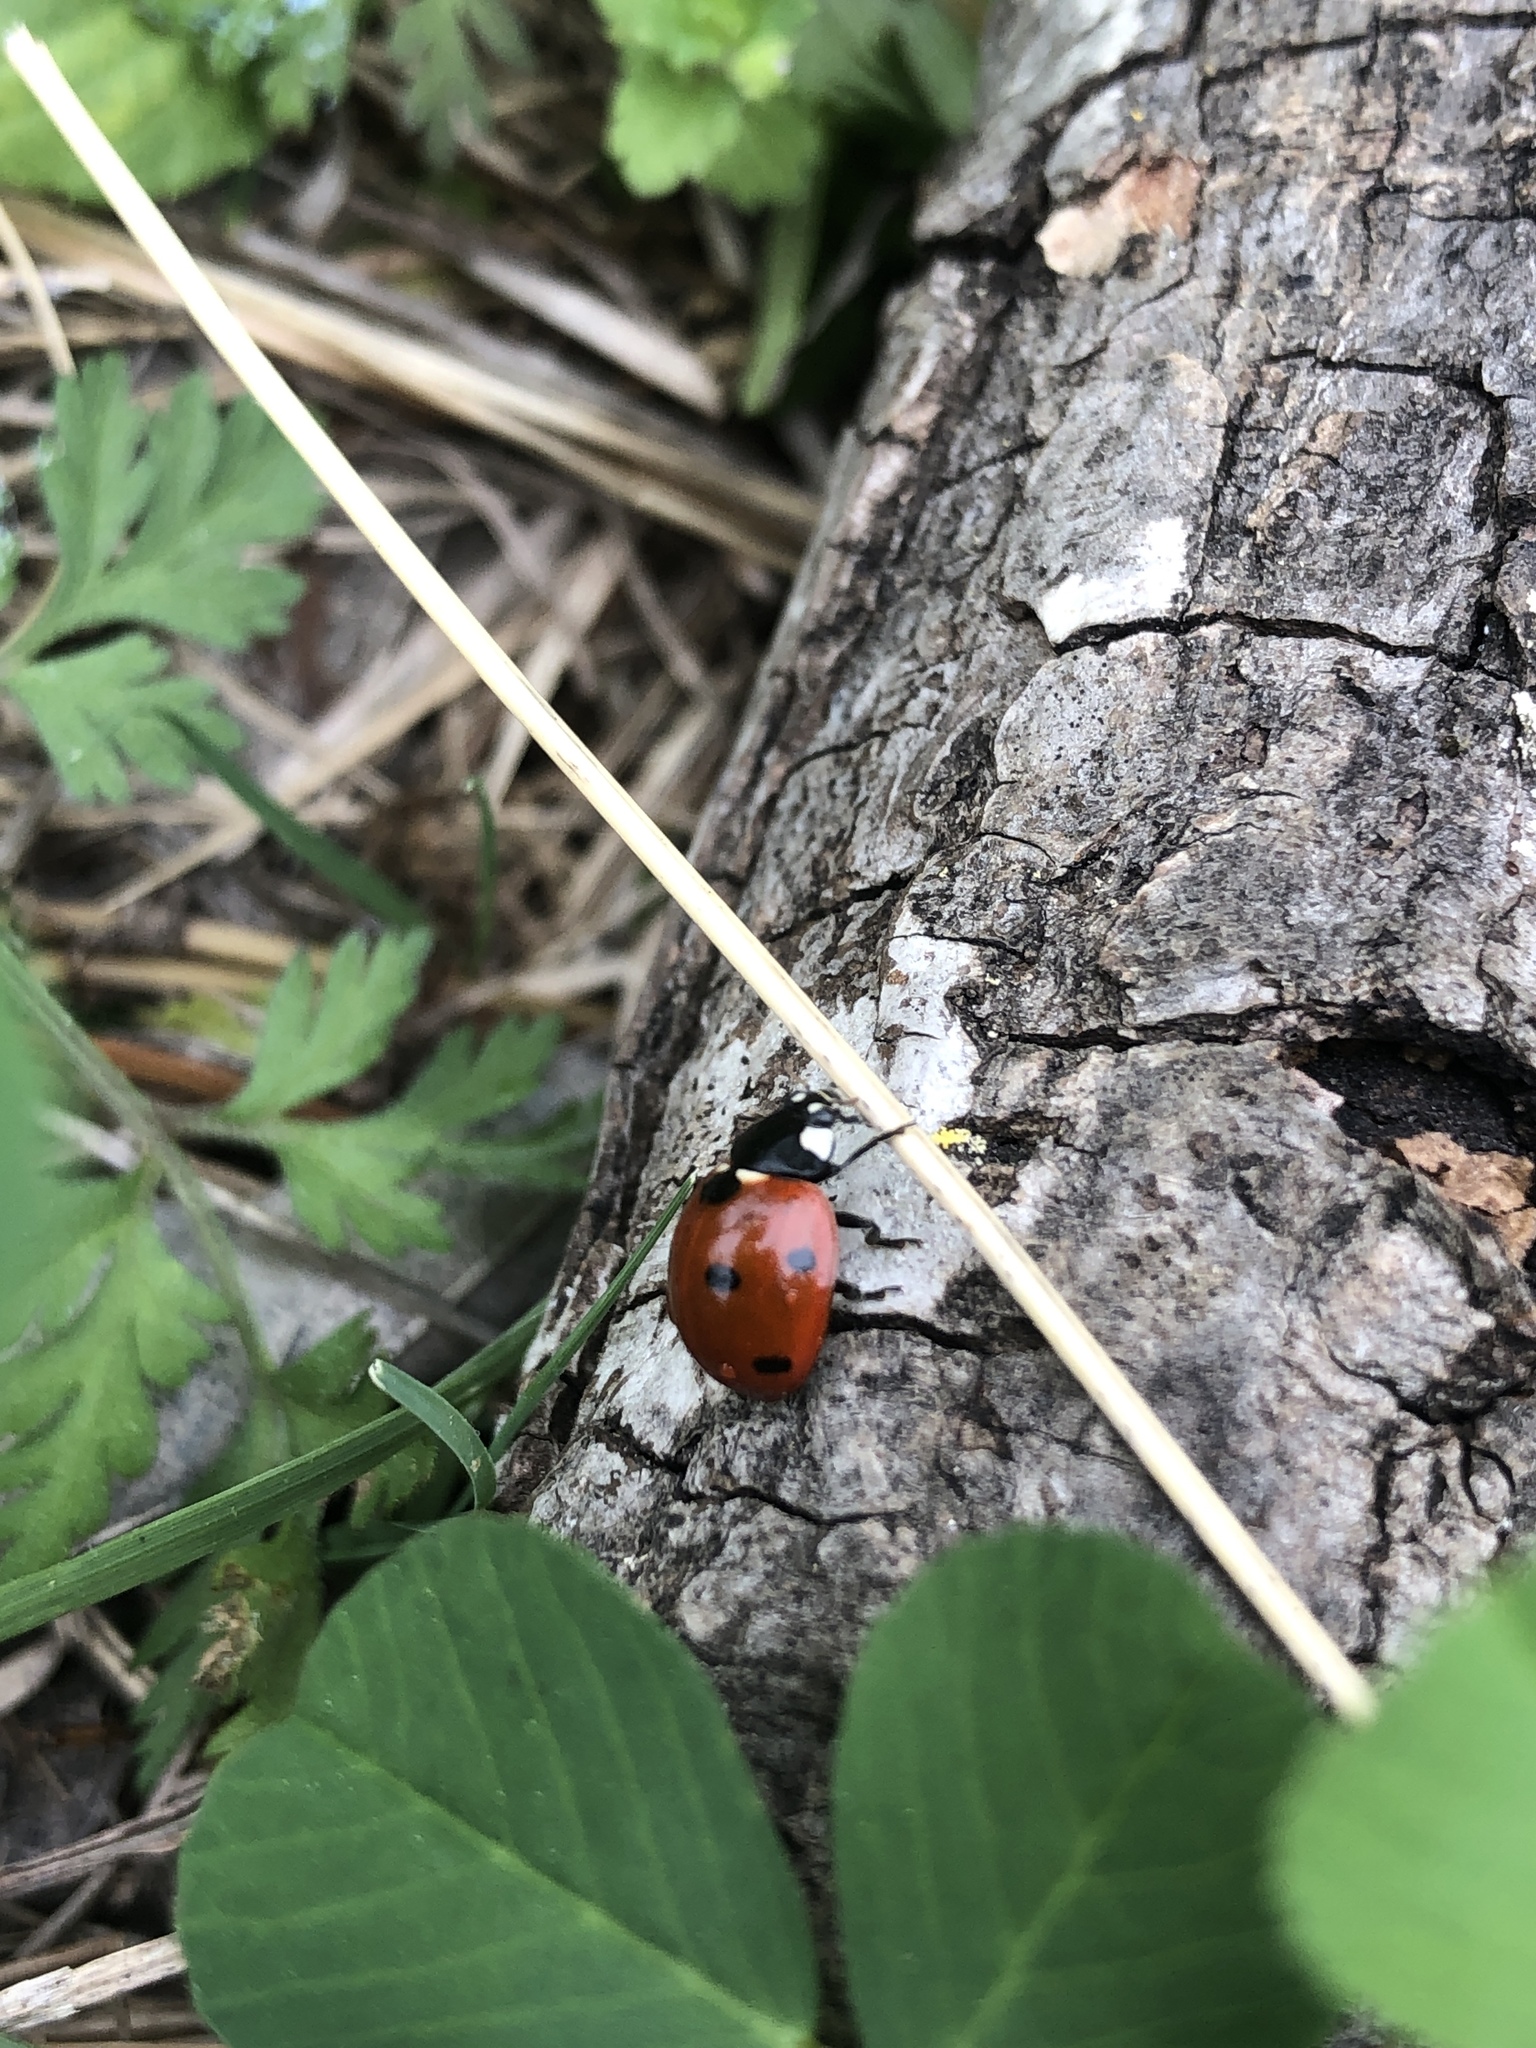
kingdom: Animalia
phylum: Arthropoda
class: Insecta
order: Coleoptera
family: Coccinellidae
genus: Coccinella
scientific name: Coccinella septempunctata
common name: Sevenspotted lady beetle
